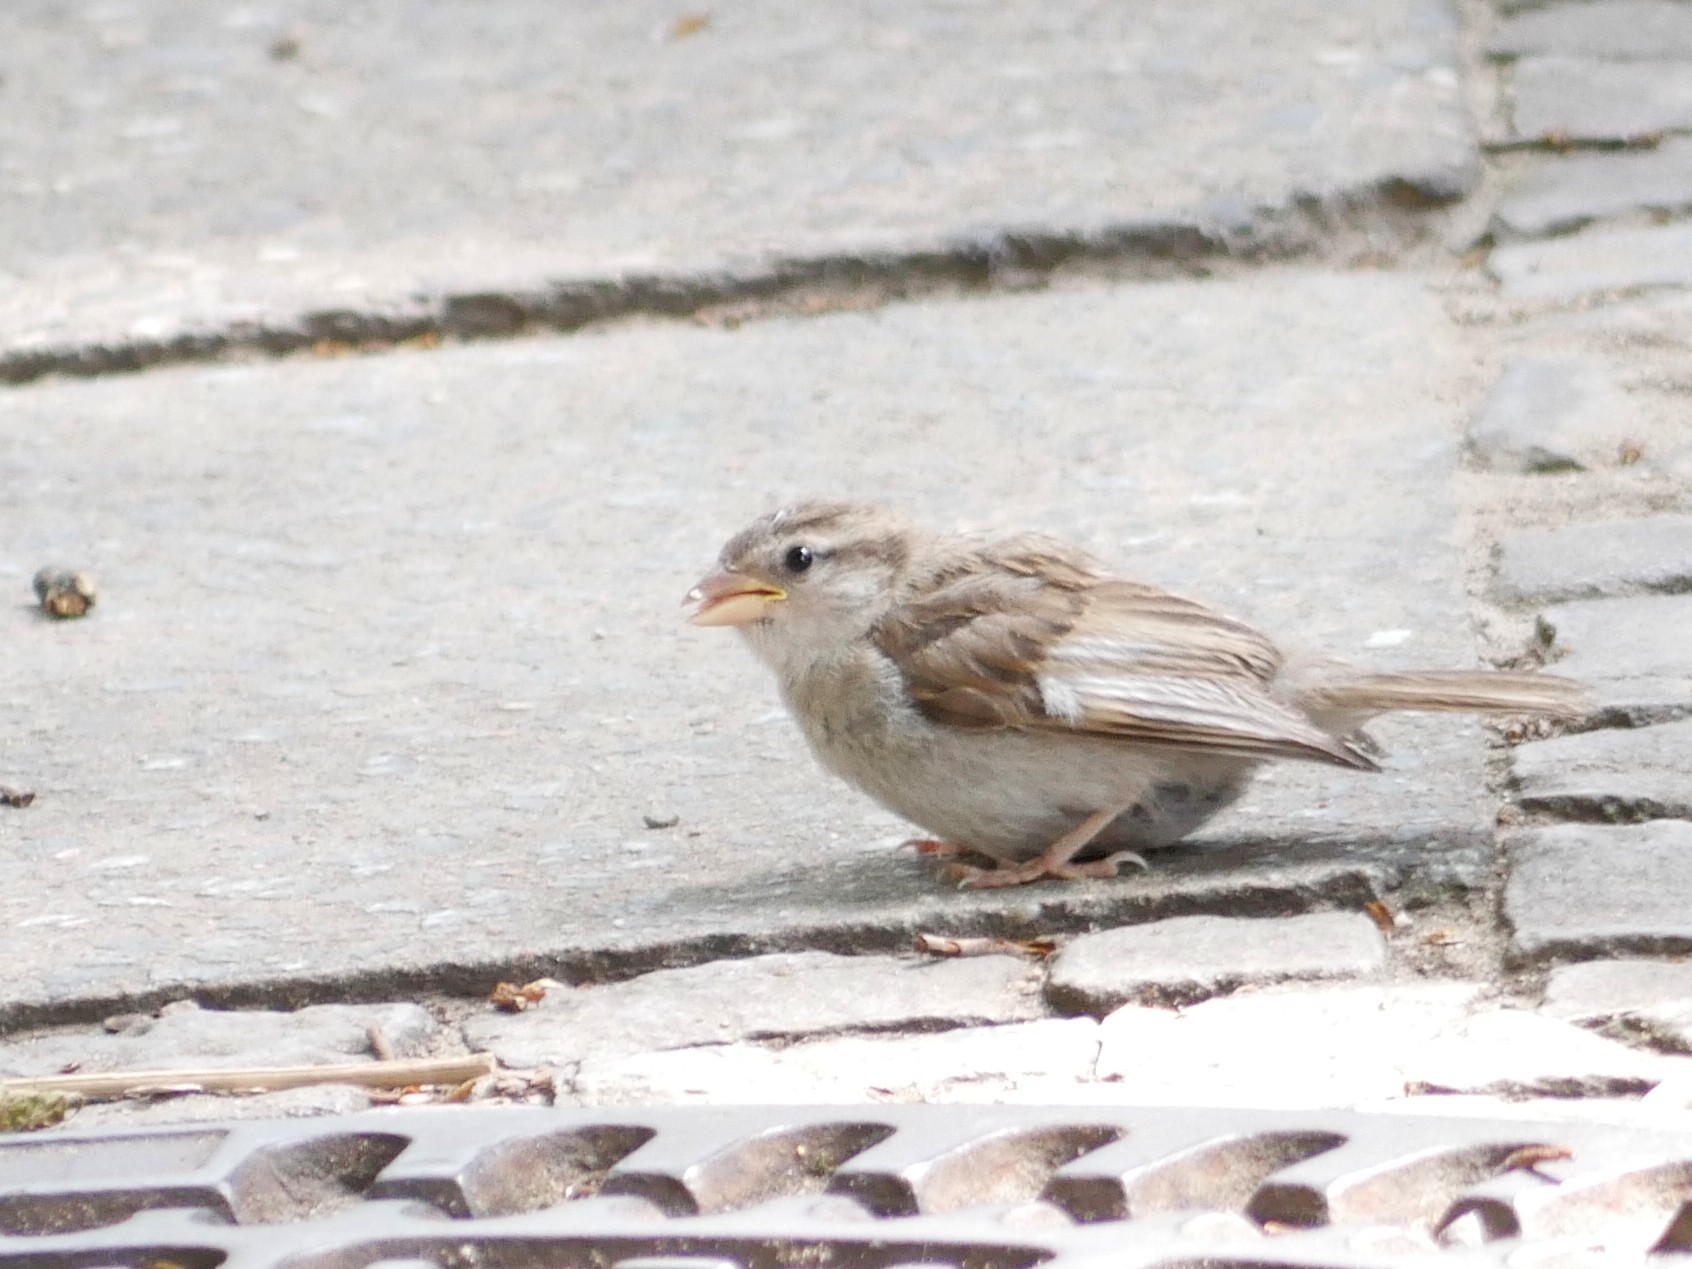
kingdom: Animalia
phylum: Chordata
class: Aves
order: Passeriformes
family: Passeridae
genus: Passer
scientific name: Passer domesticus
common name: House sparrow
